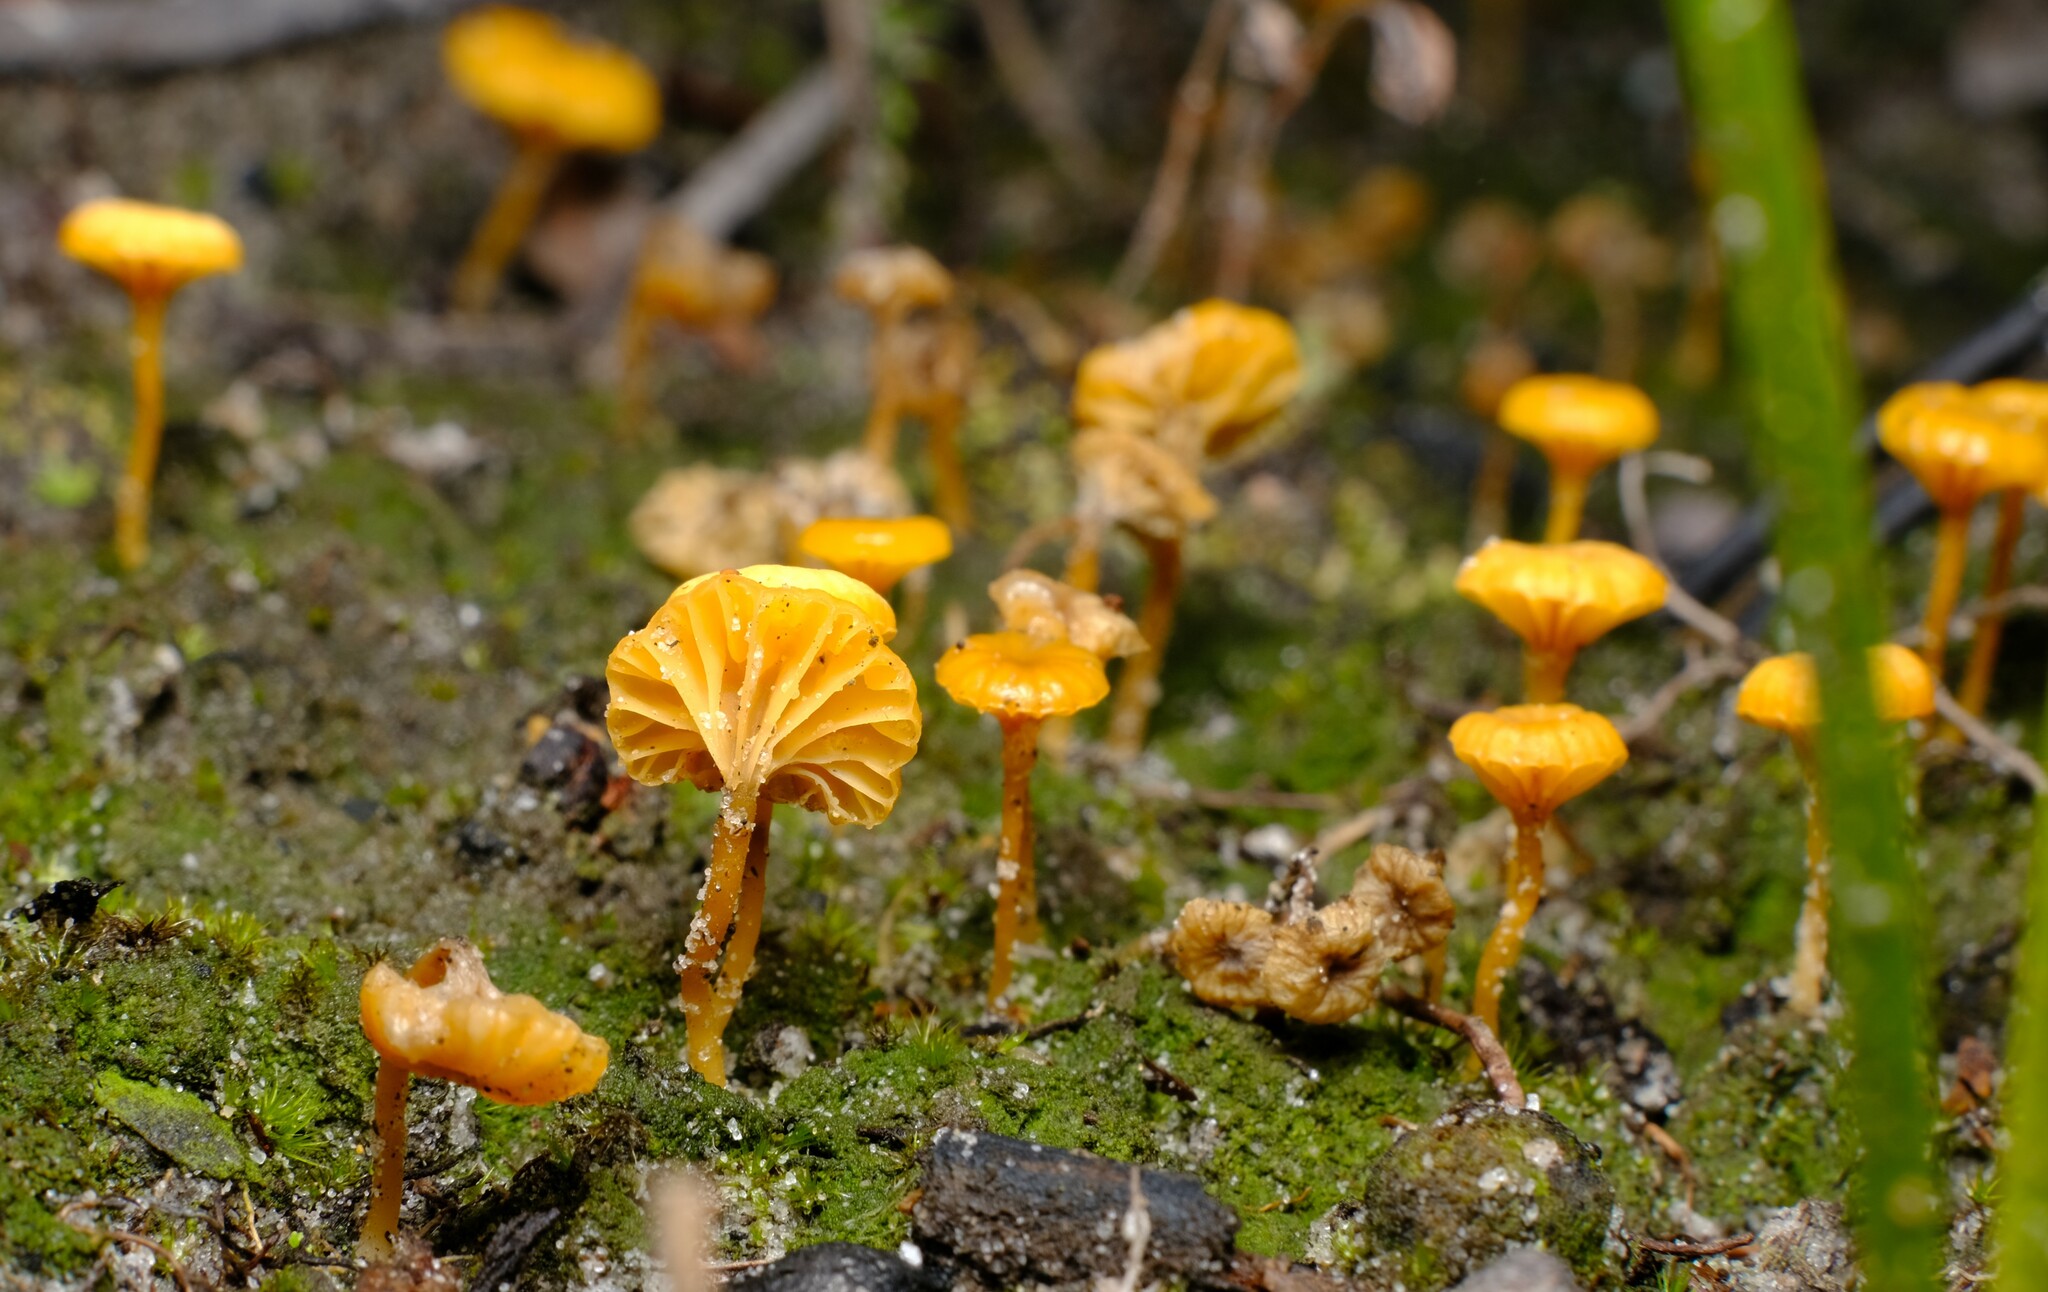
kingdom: Fungi
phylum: Basidiomycota
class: Agaricomycetes
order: Agaricales
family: Hygrophoraceae
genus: Lichenomphalia
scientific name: Lichenomphalia chromacea
